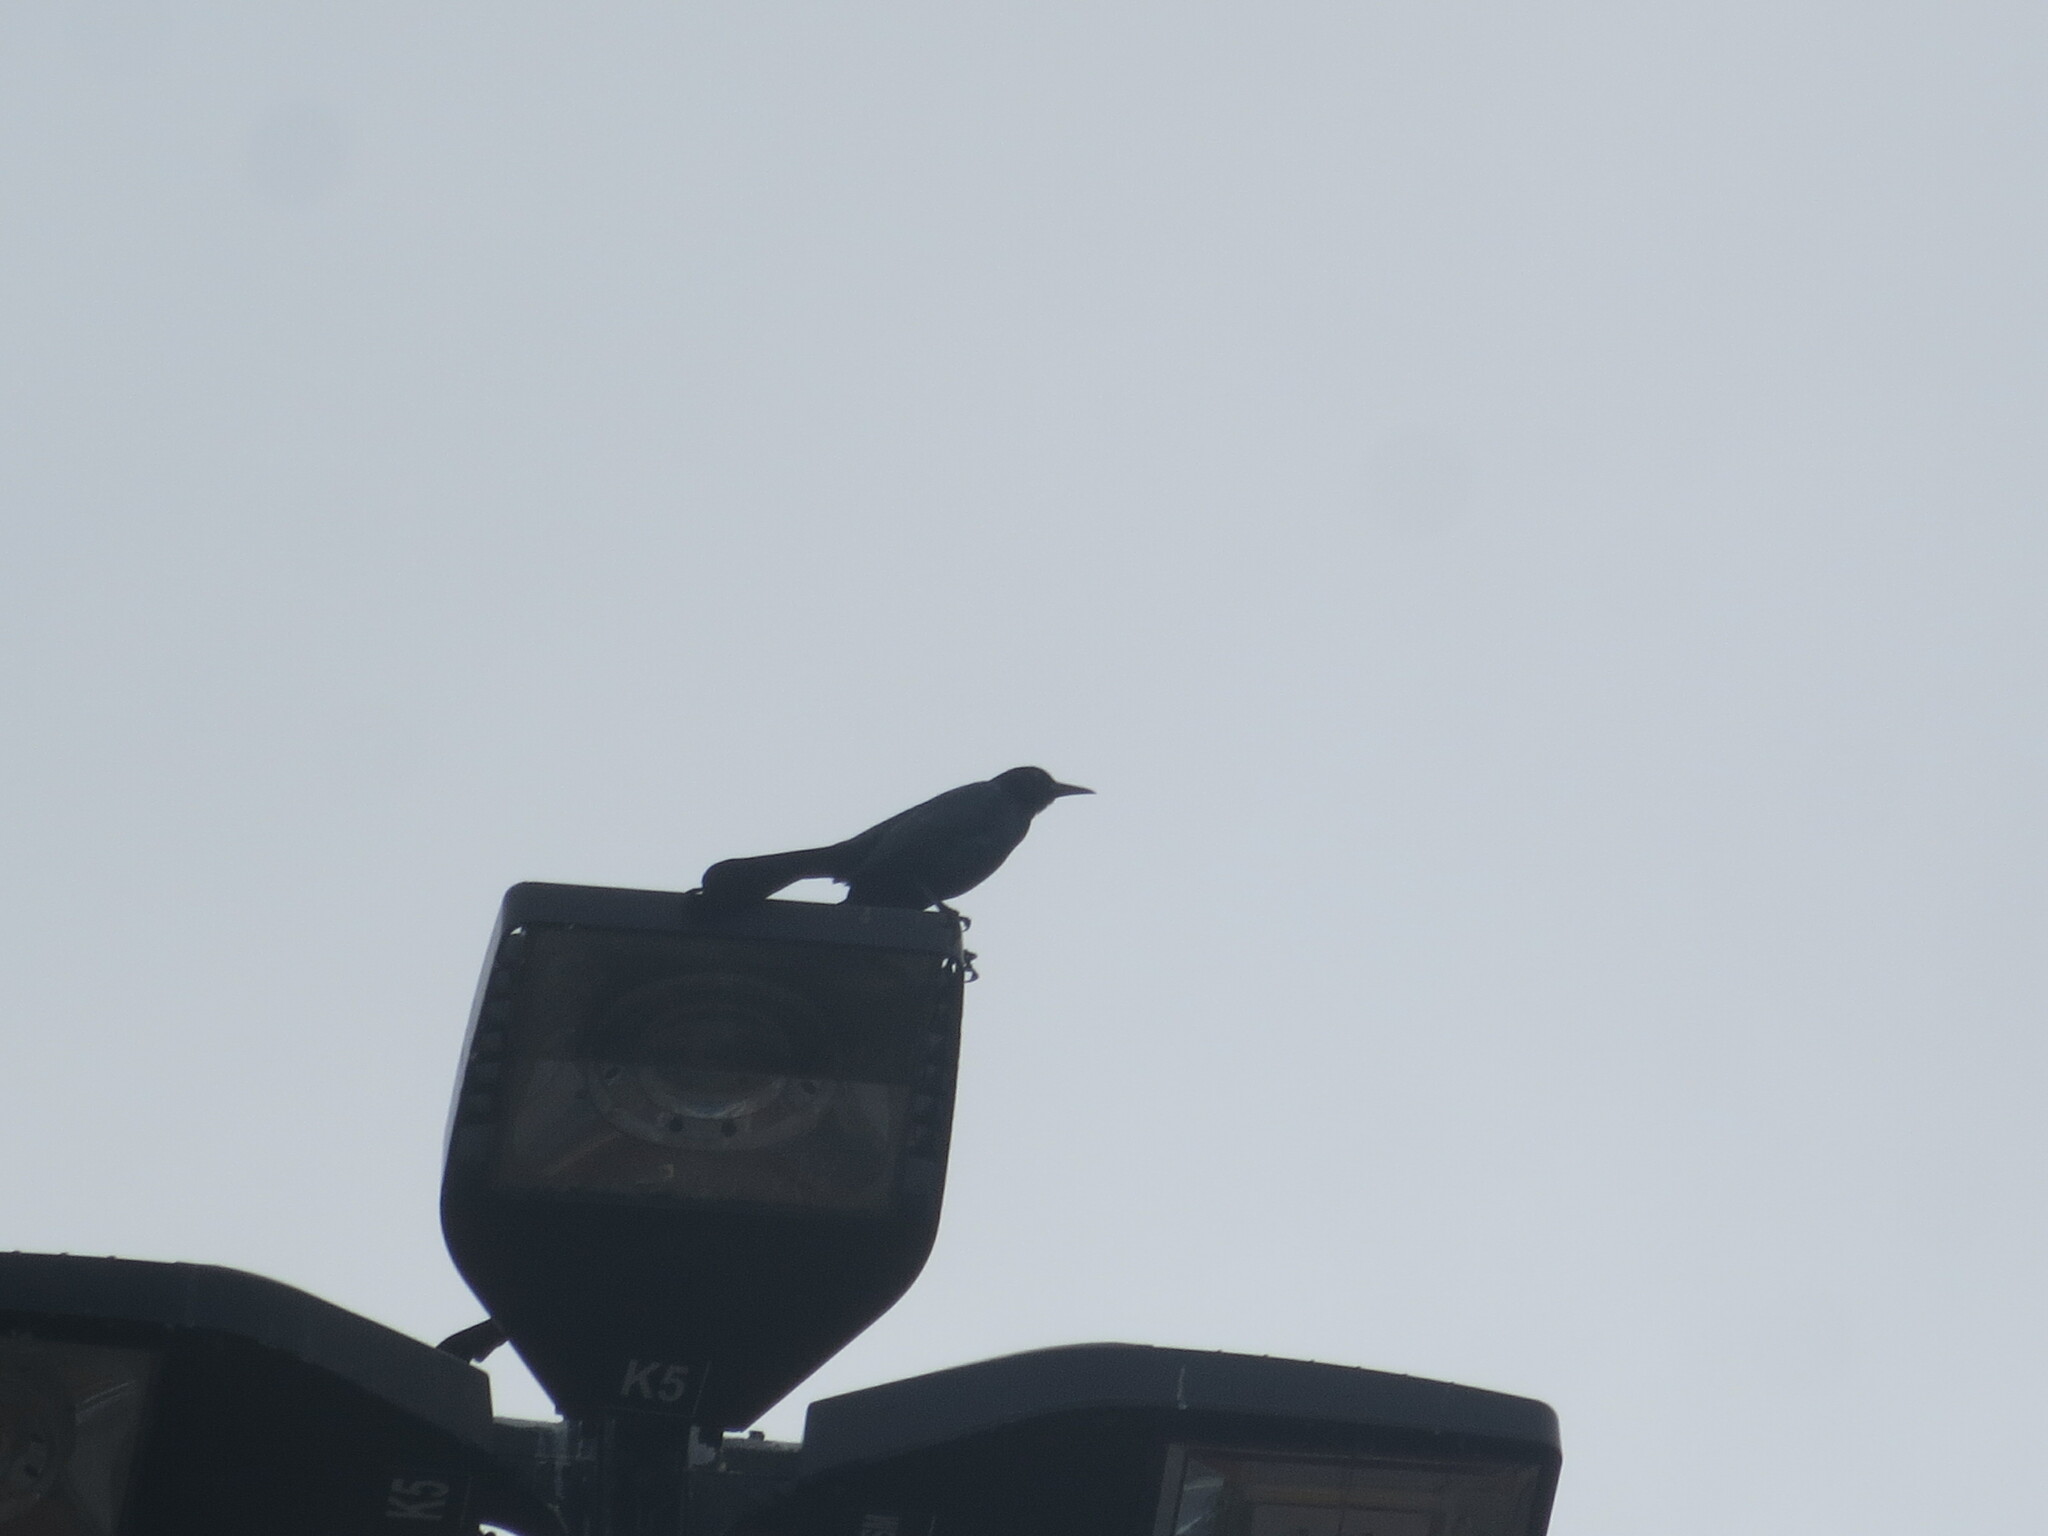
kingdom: Animalia
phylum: Chordata
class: Aves
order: Passeriformes
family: Icteridae
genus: Quiscalus
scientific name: Quiscalus major
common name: Boat-tailed grackle
